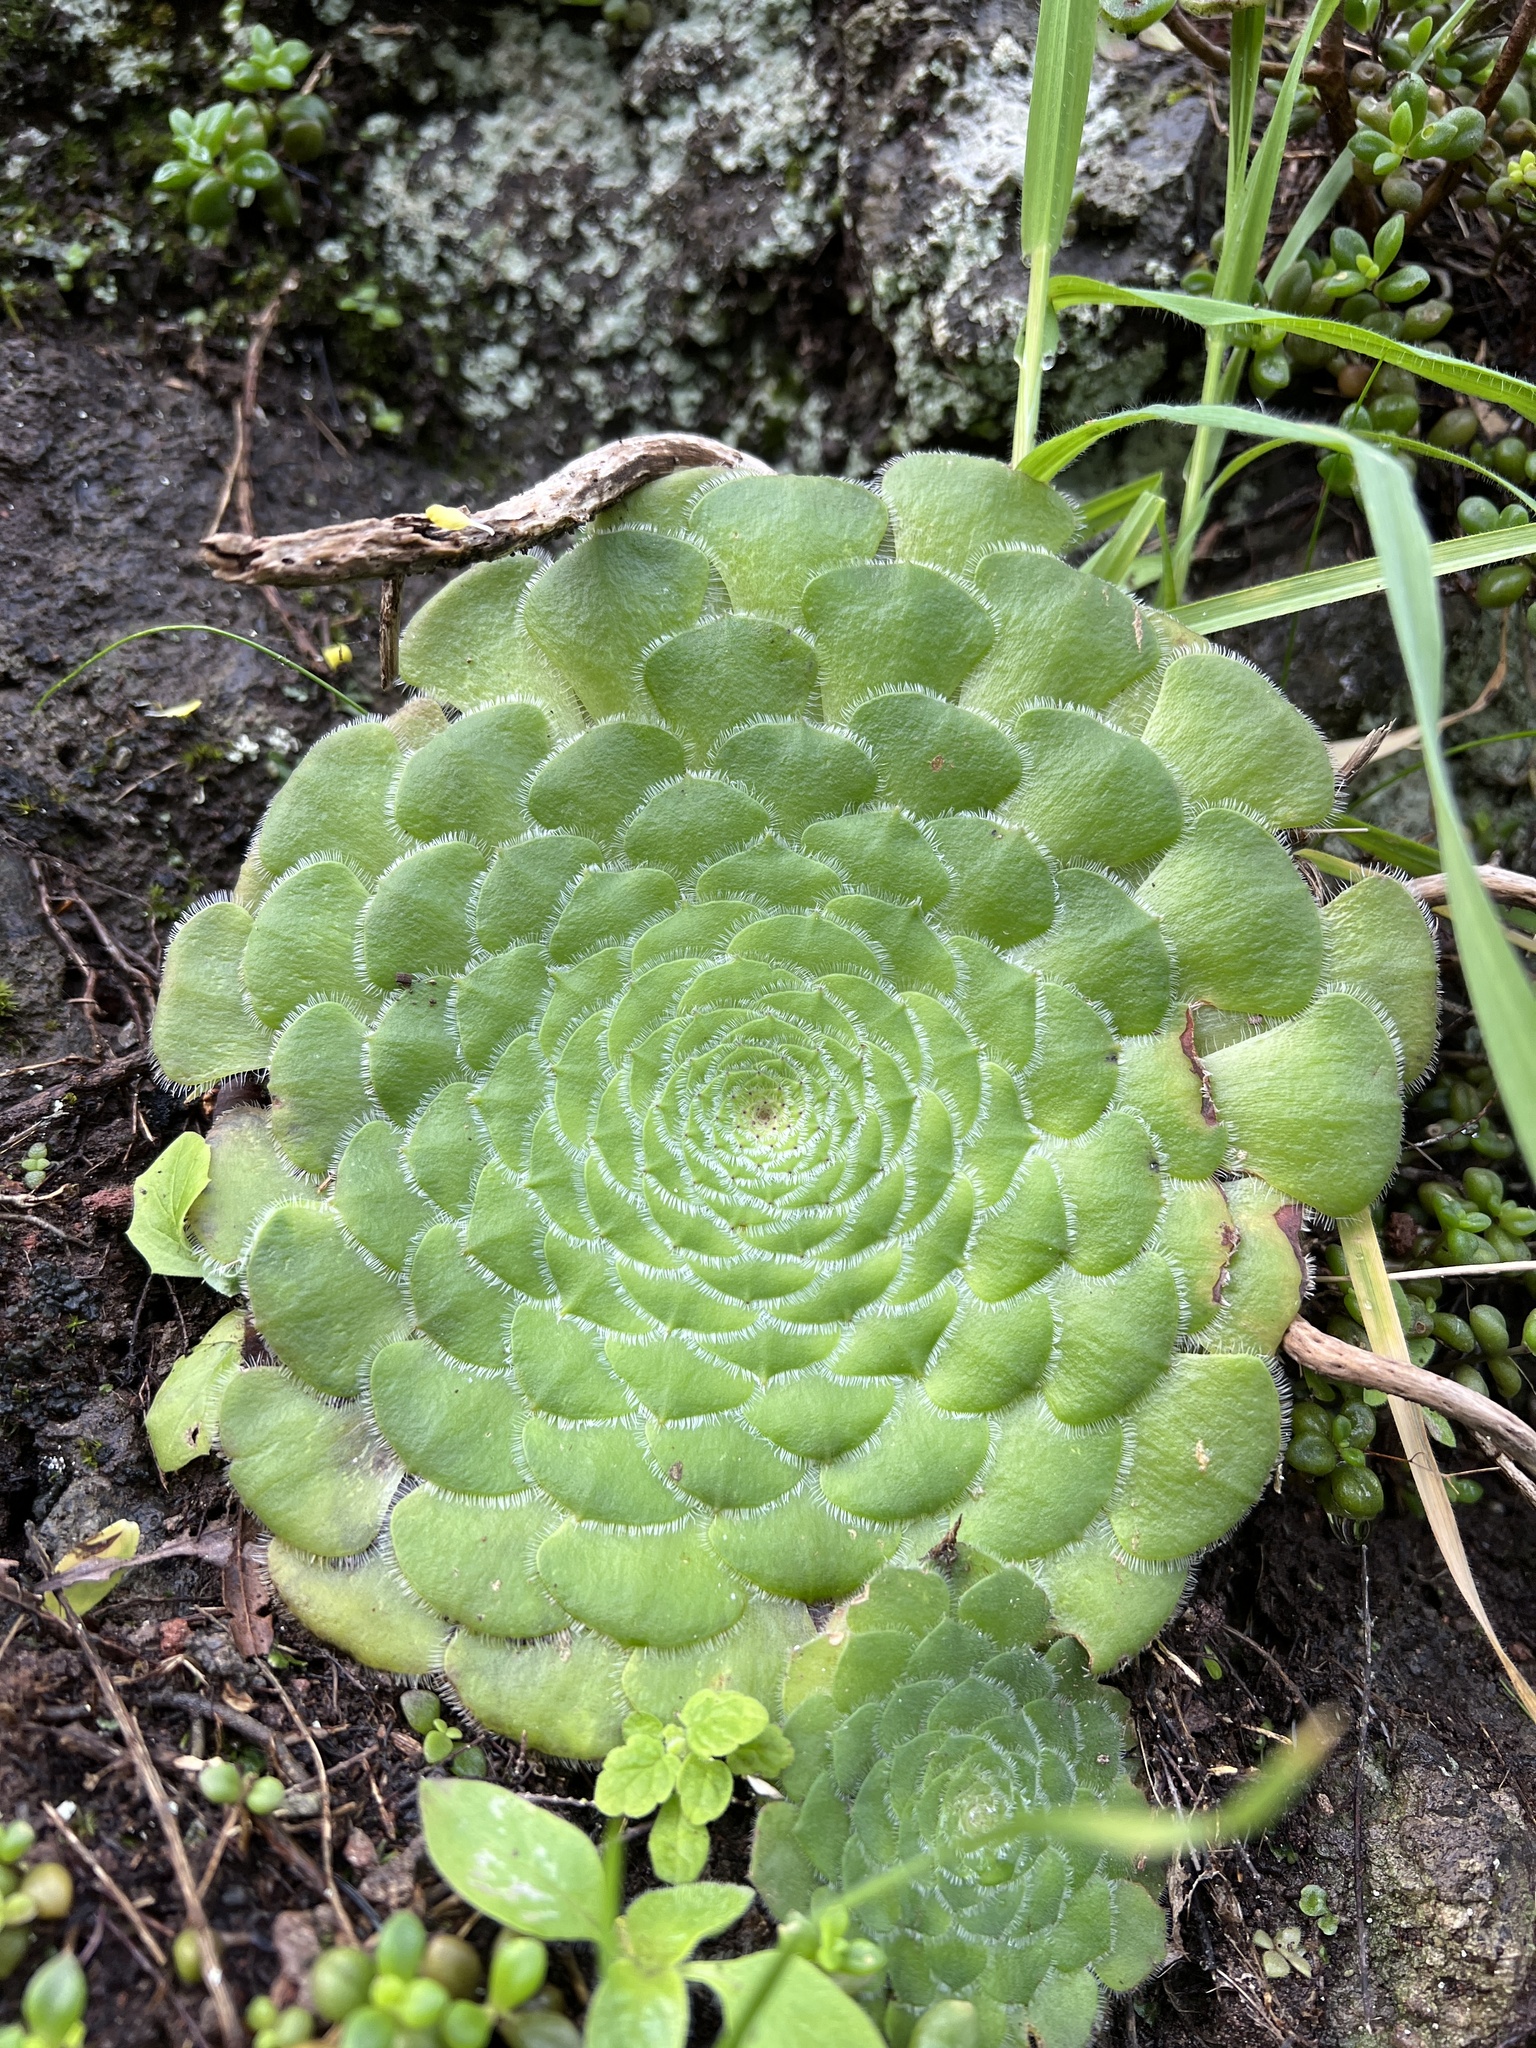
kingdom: Plantae
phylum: Tracheophyta
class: Magnoliopsida
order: Saxifragales
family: Crassulaceae
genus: Aeonium
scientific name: Aeonium tabulaeforme
